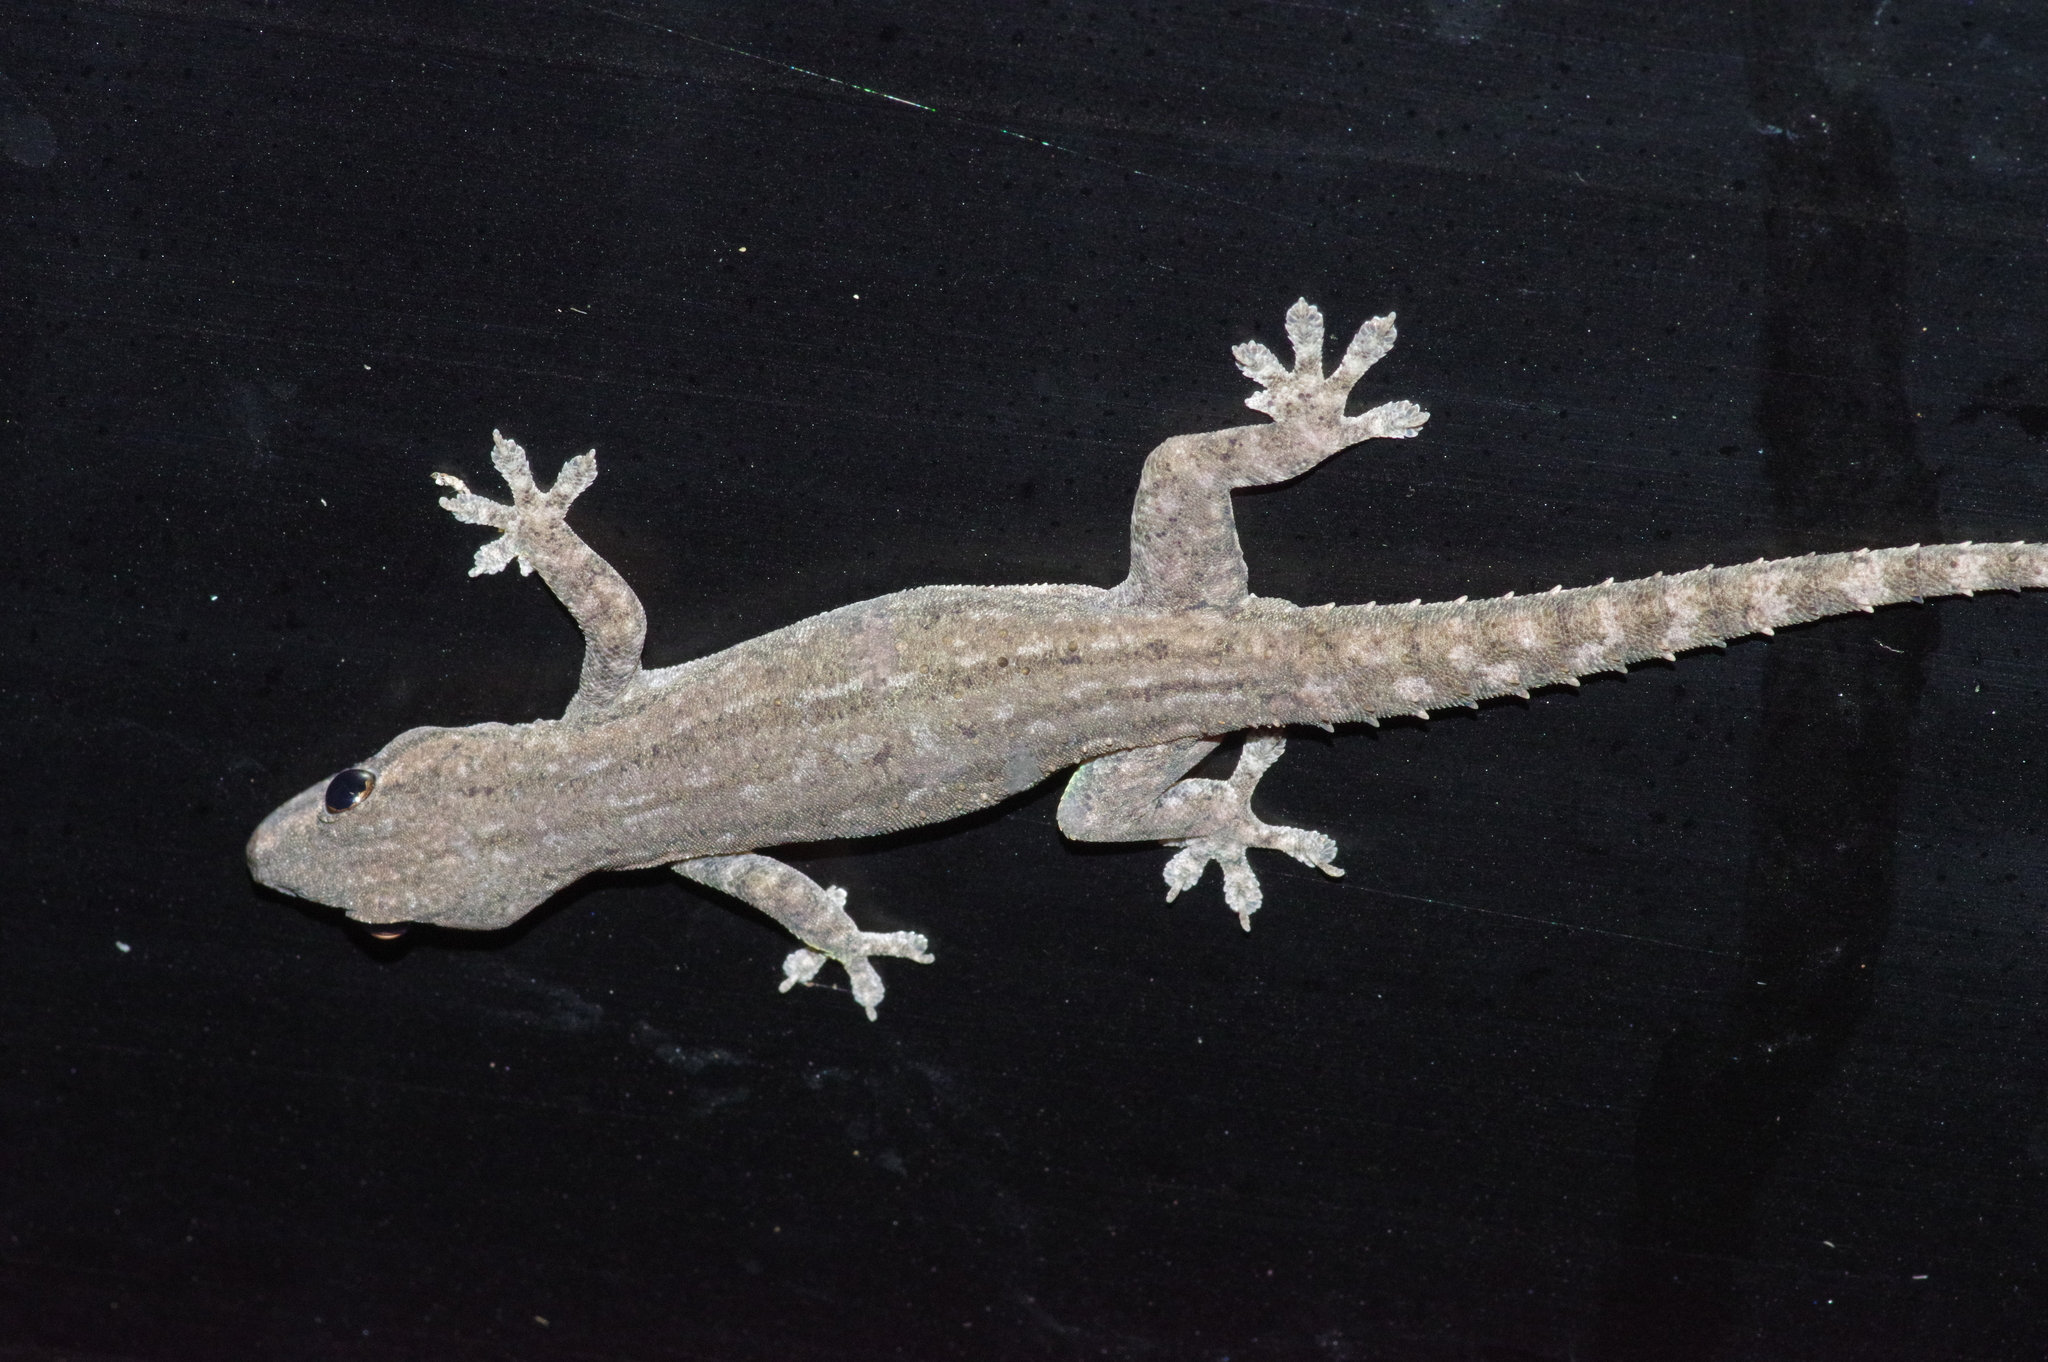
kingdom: Animalia
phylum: Chordata
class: Squamata
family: Gekkonidae
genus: Hemidactylus
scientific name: Hemidactylus frenatus
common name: Common house gecko
